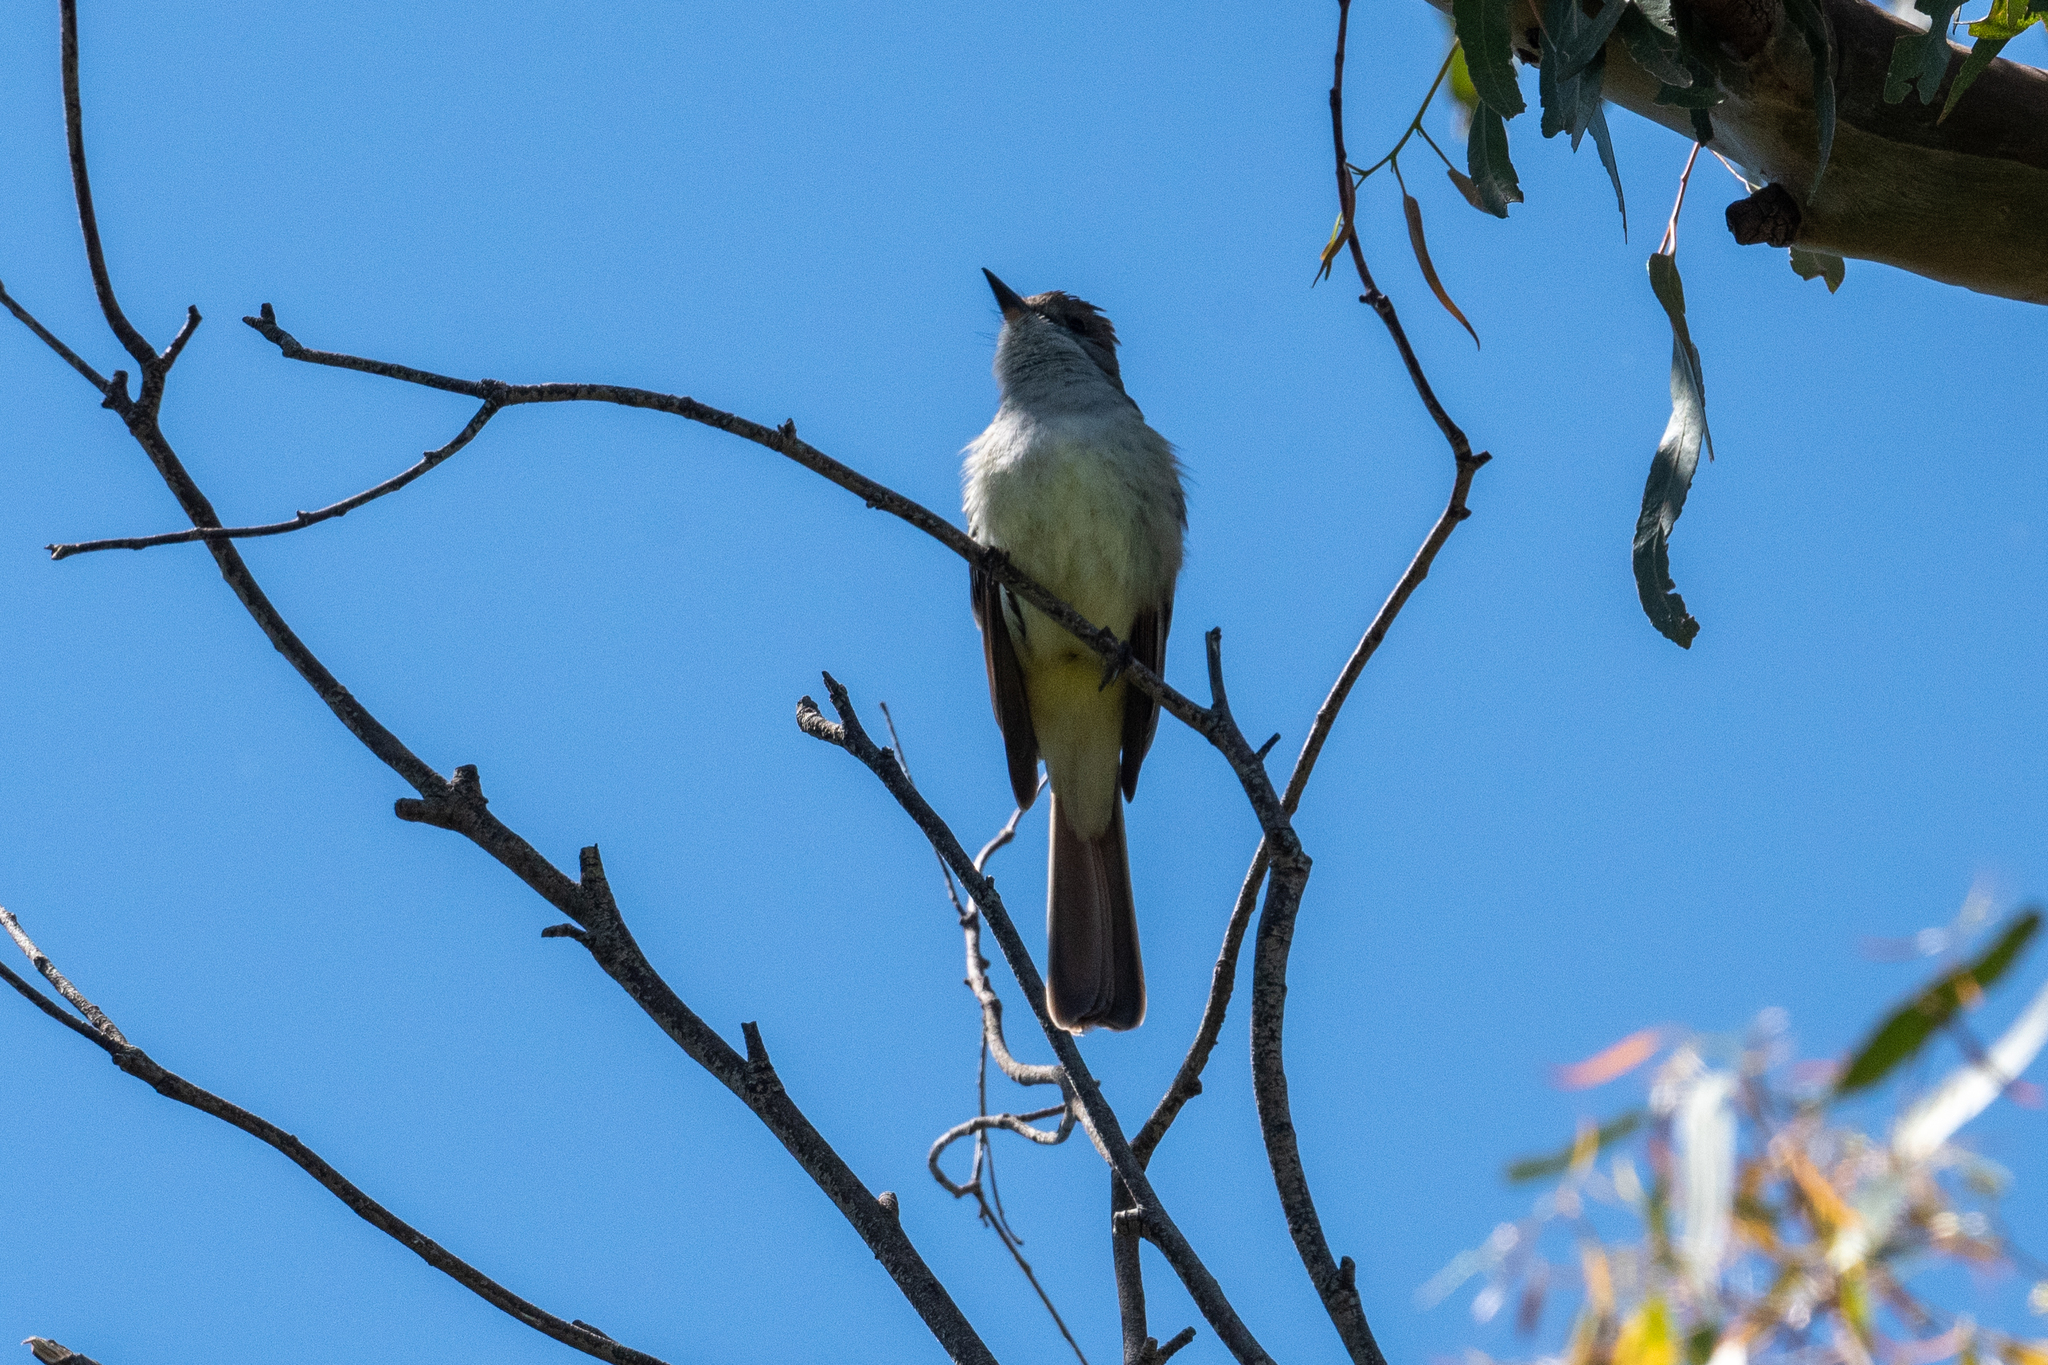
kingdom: Animalia
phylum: Chordata
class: Aves
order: Passeriformes
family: Tyrannidae
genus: Myiarchus
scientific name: Myiarchus cinerascens
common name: Ash-throated flycatcher
